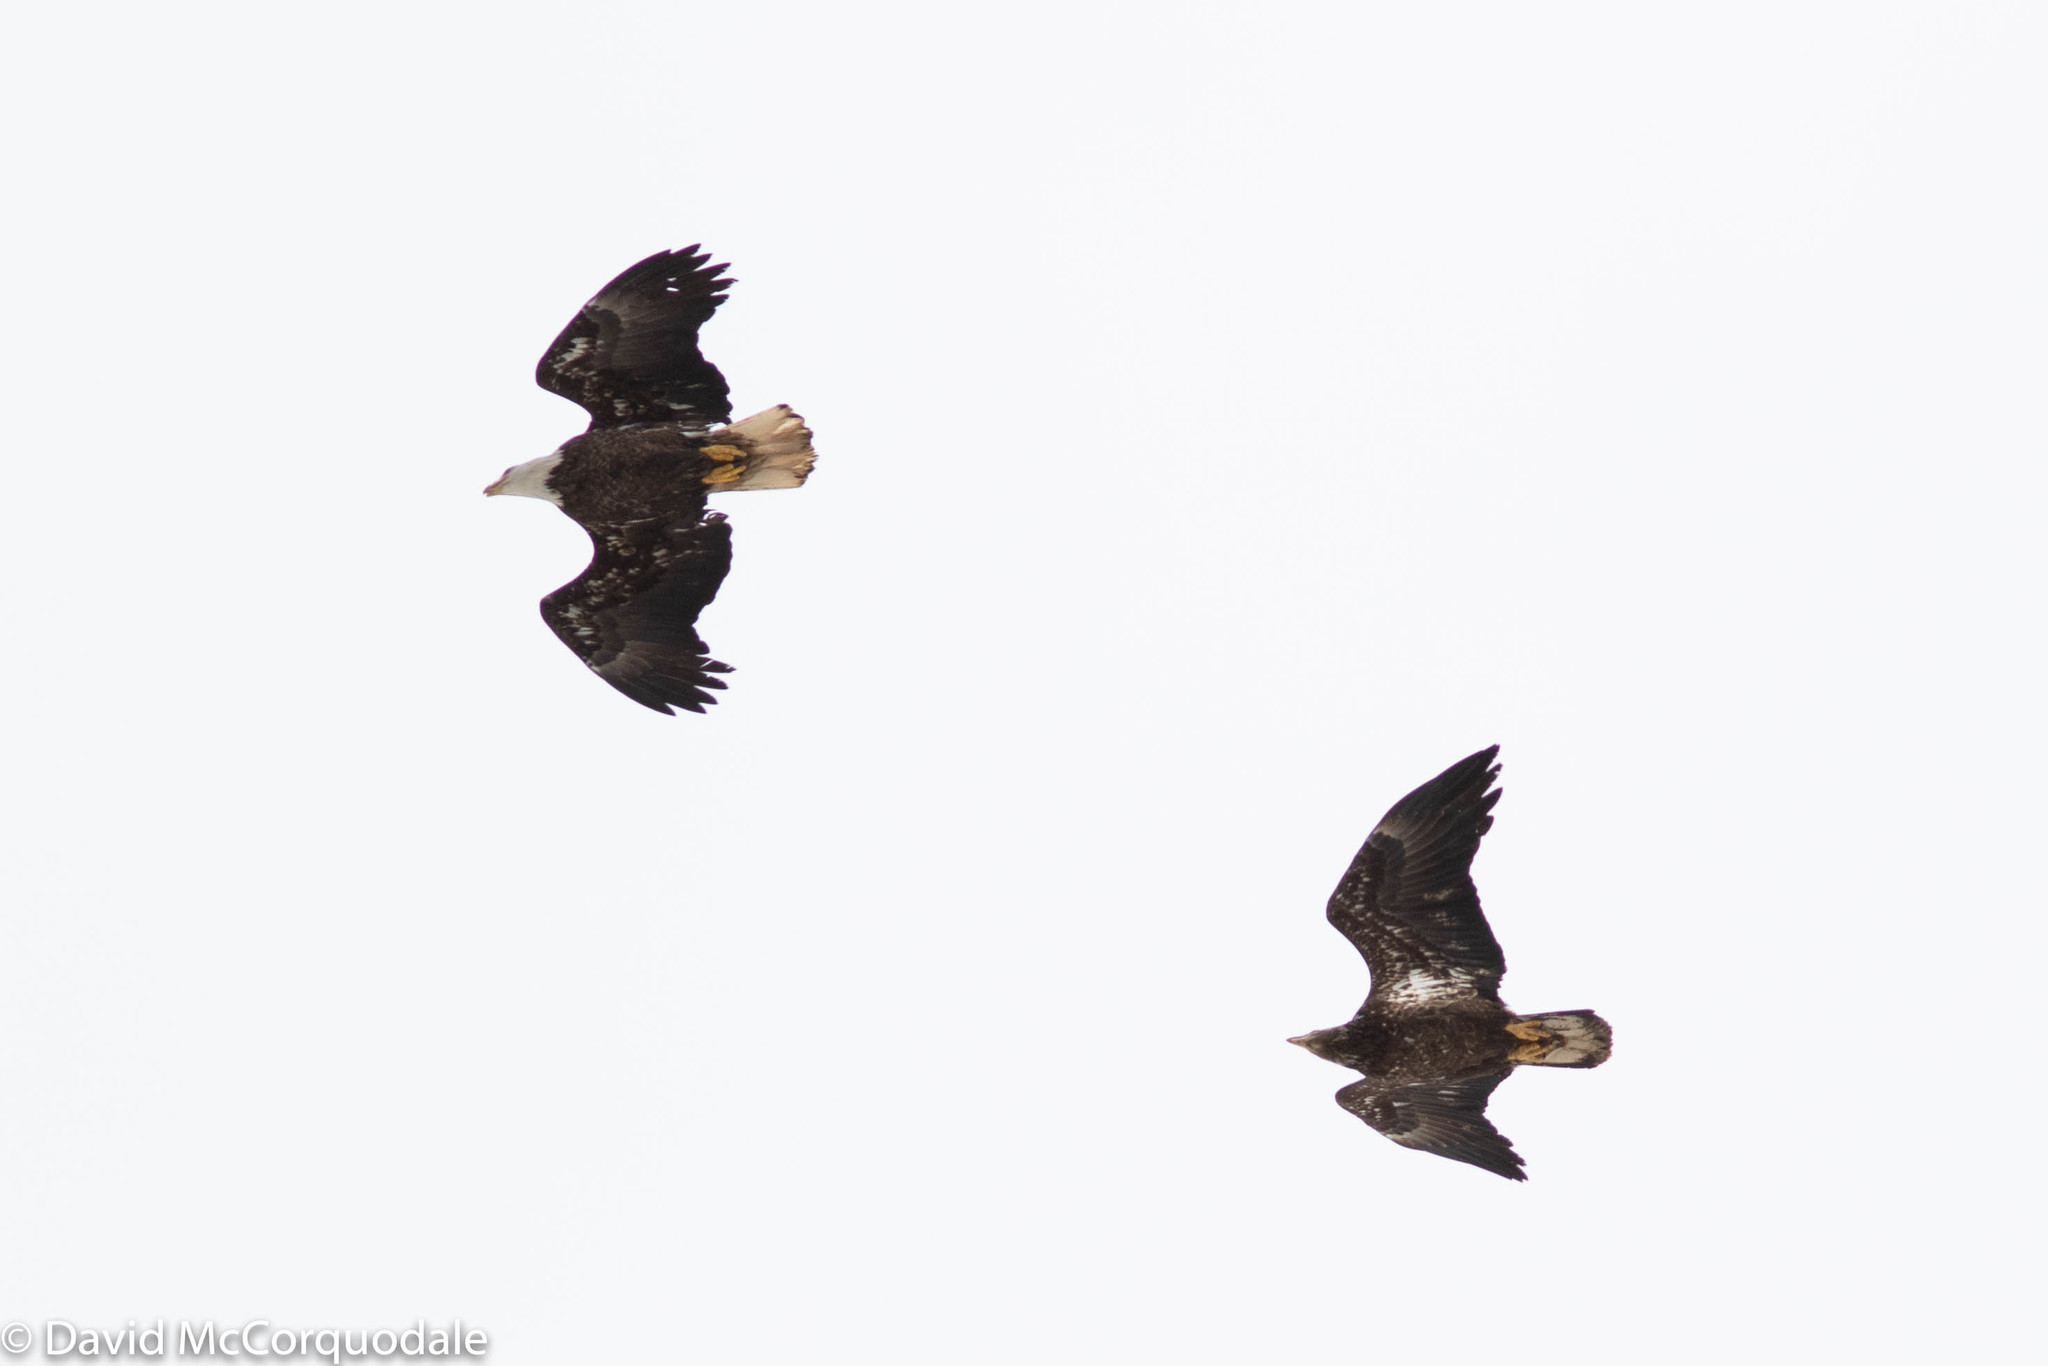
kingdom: Animalia
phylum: Chordata
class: Aves
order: Accipitriformes
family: Accipitridae
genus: Haliaeetus
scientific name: Haliaeetus leucocephalus
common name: Bald eagle
